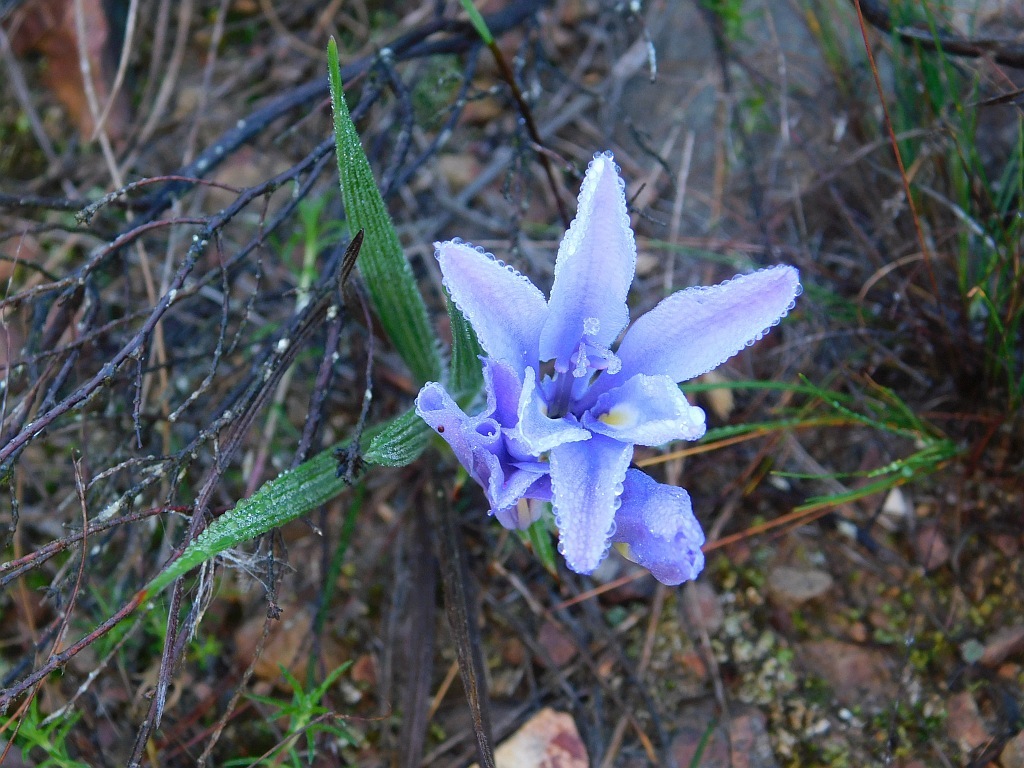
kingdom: Plantae
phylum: Tracheophyta
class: Liliopsida
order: Asparagales
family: Iridaceae
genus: Babiana
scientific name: Babiana ambigua
